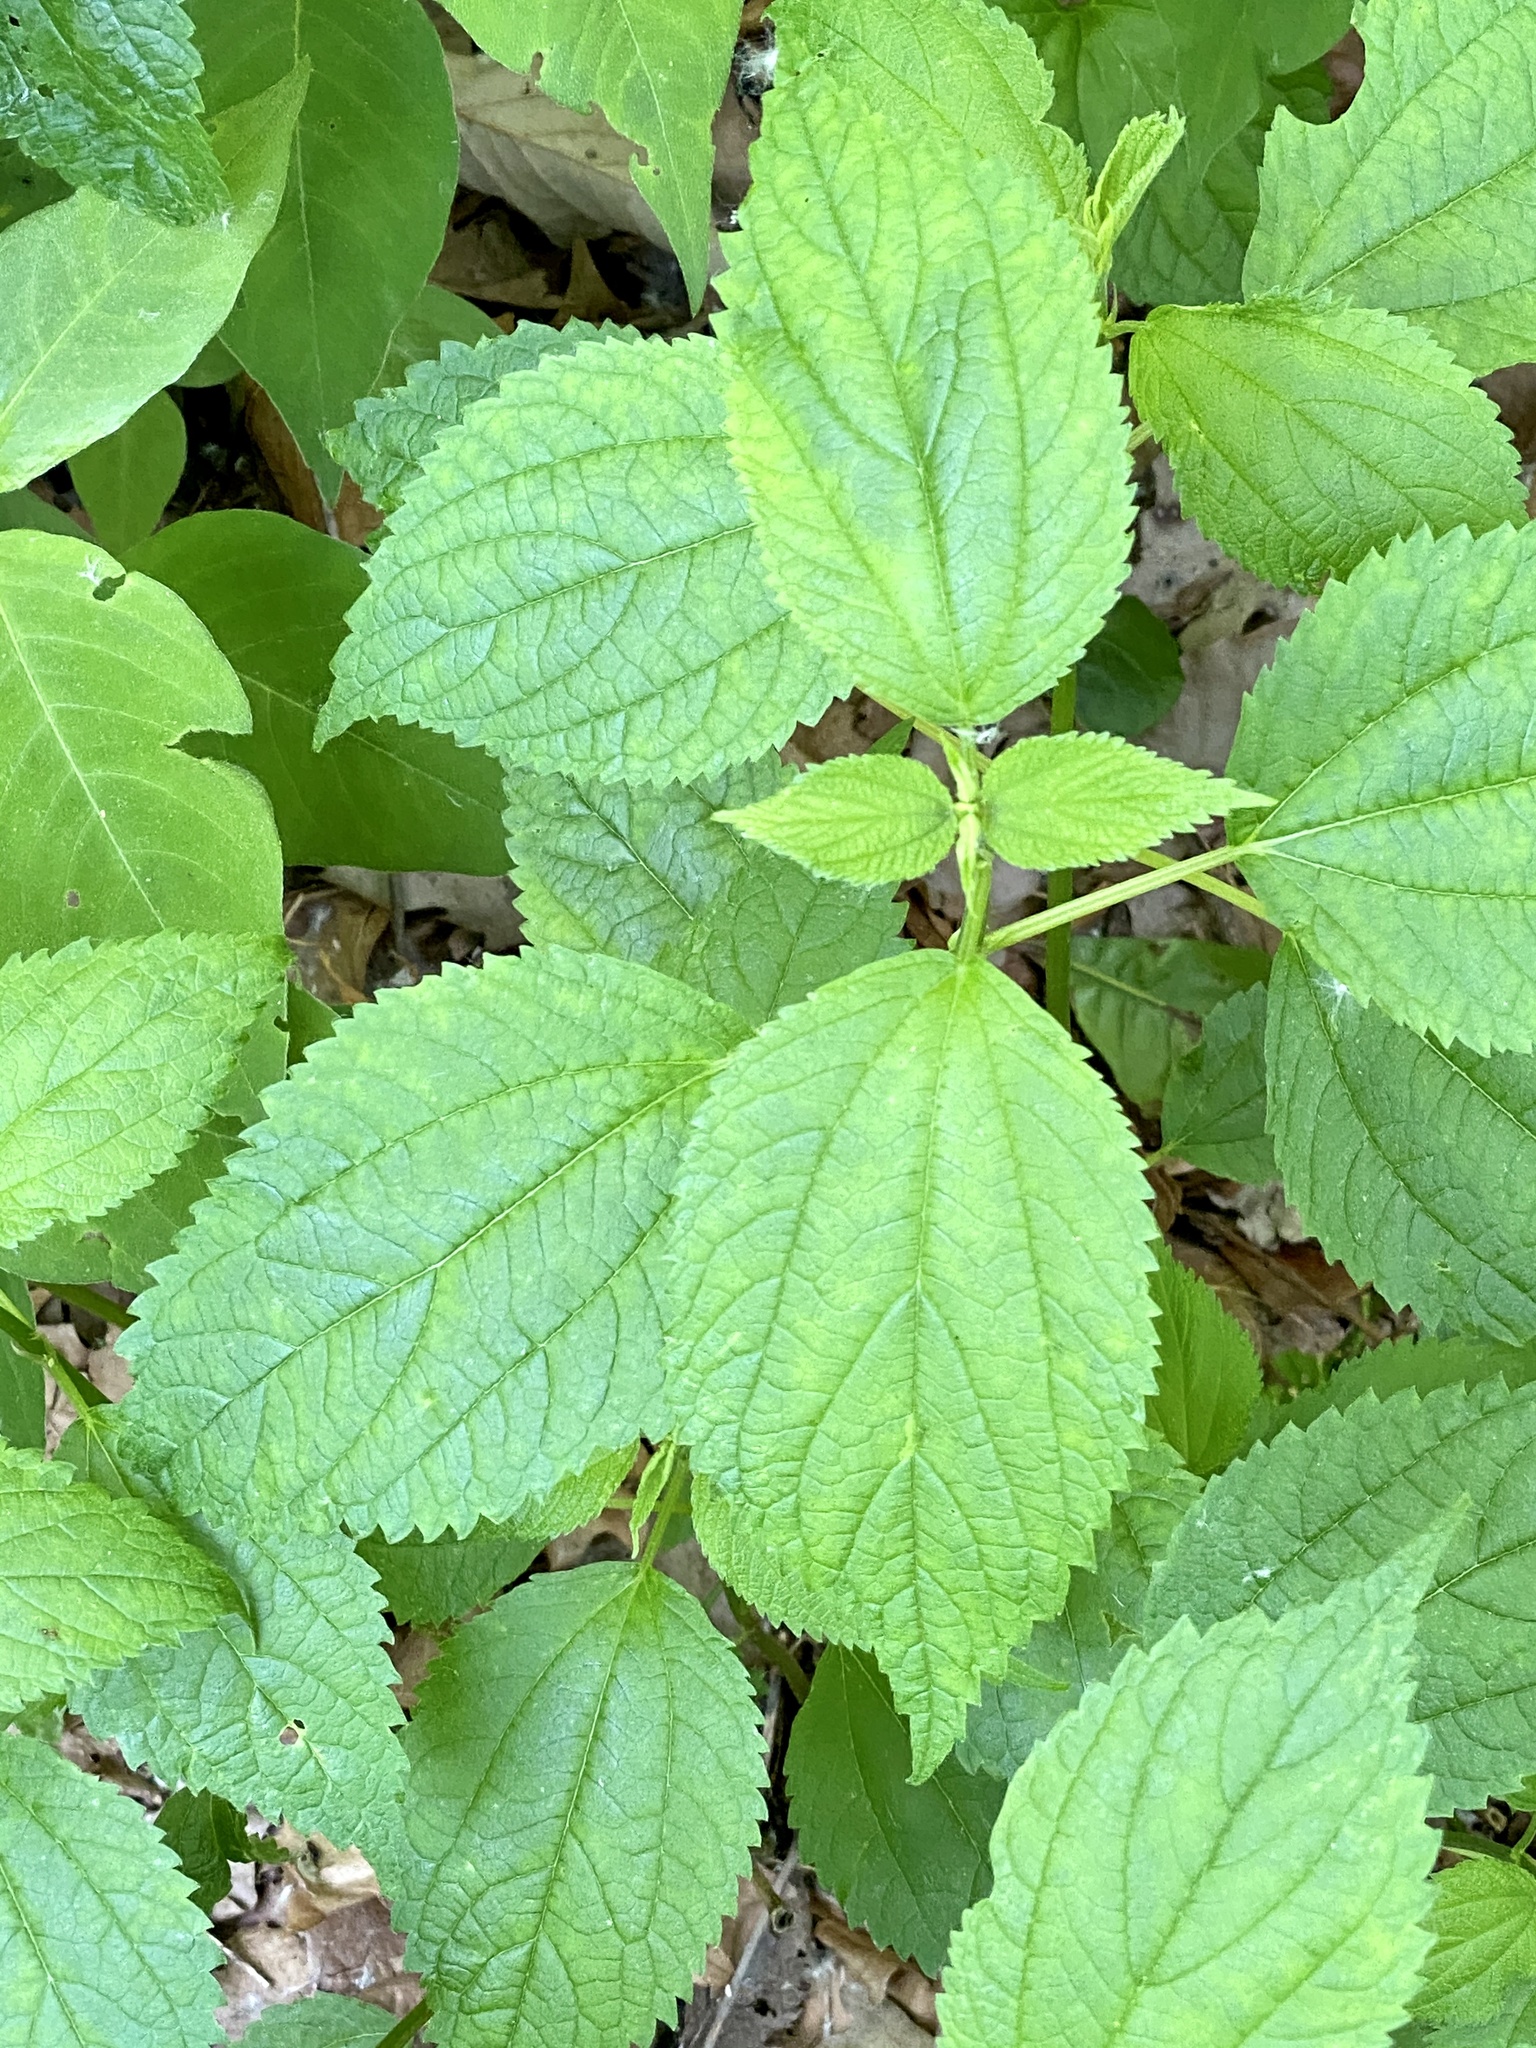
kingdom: Plantae
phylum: Tracheophyta
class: Magnoliopsida
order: Rosales
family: Urticaceae
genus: Boehmeria
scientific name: Boehmeria cylindrica
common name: Bog-hemp
